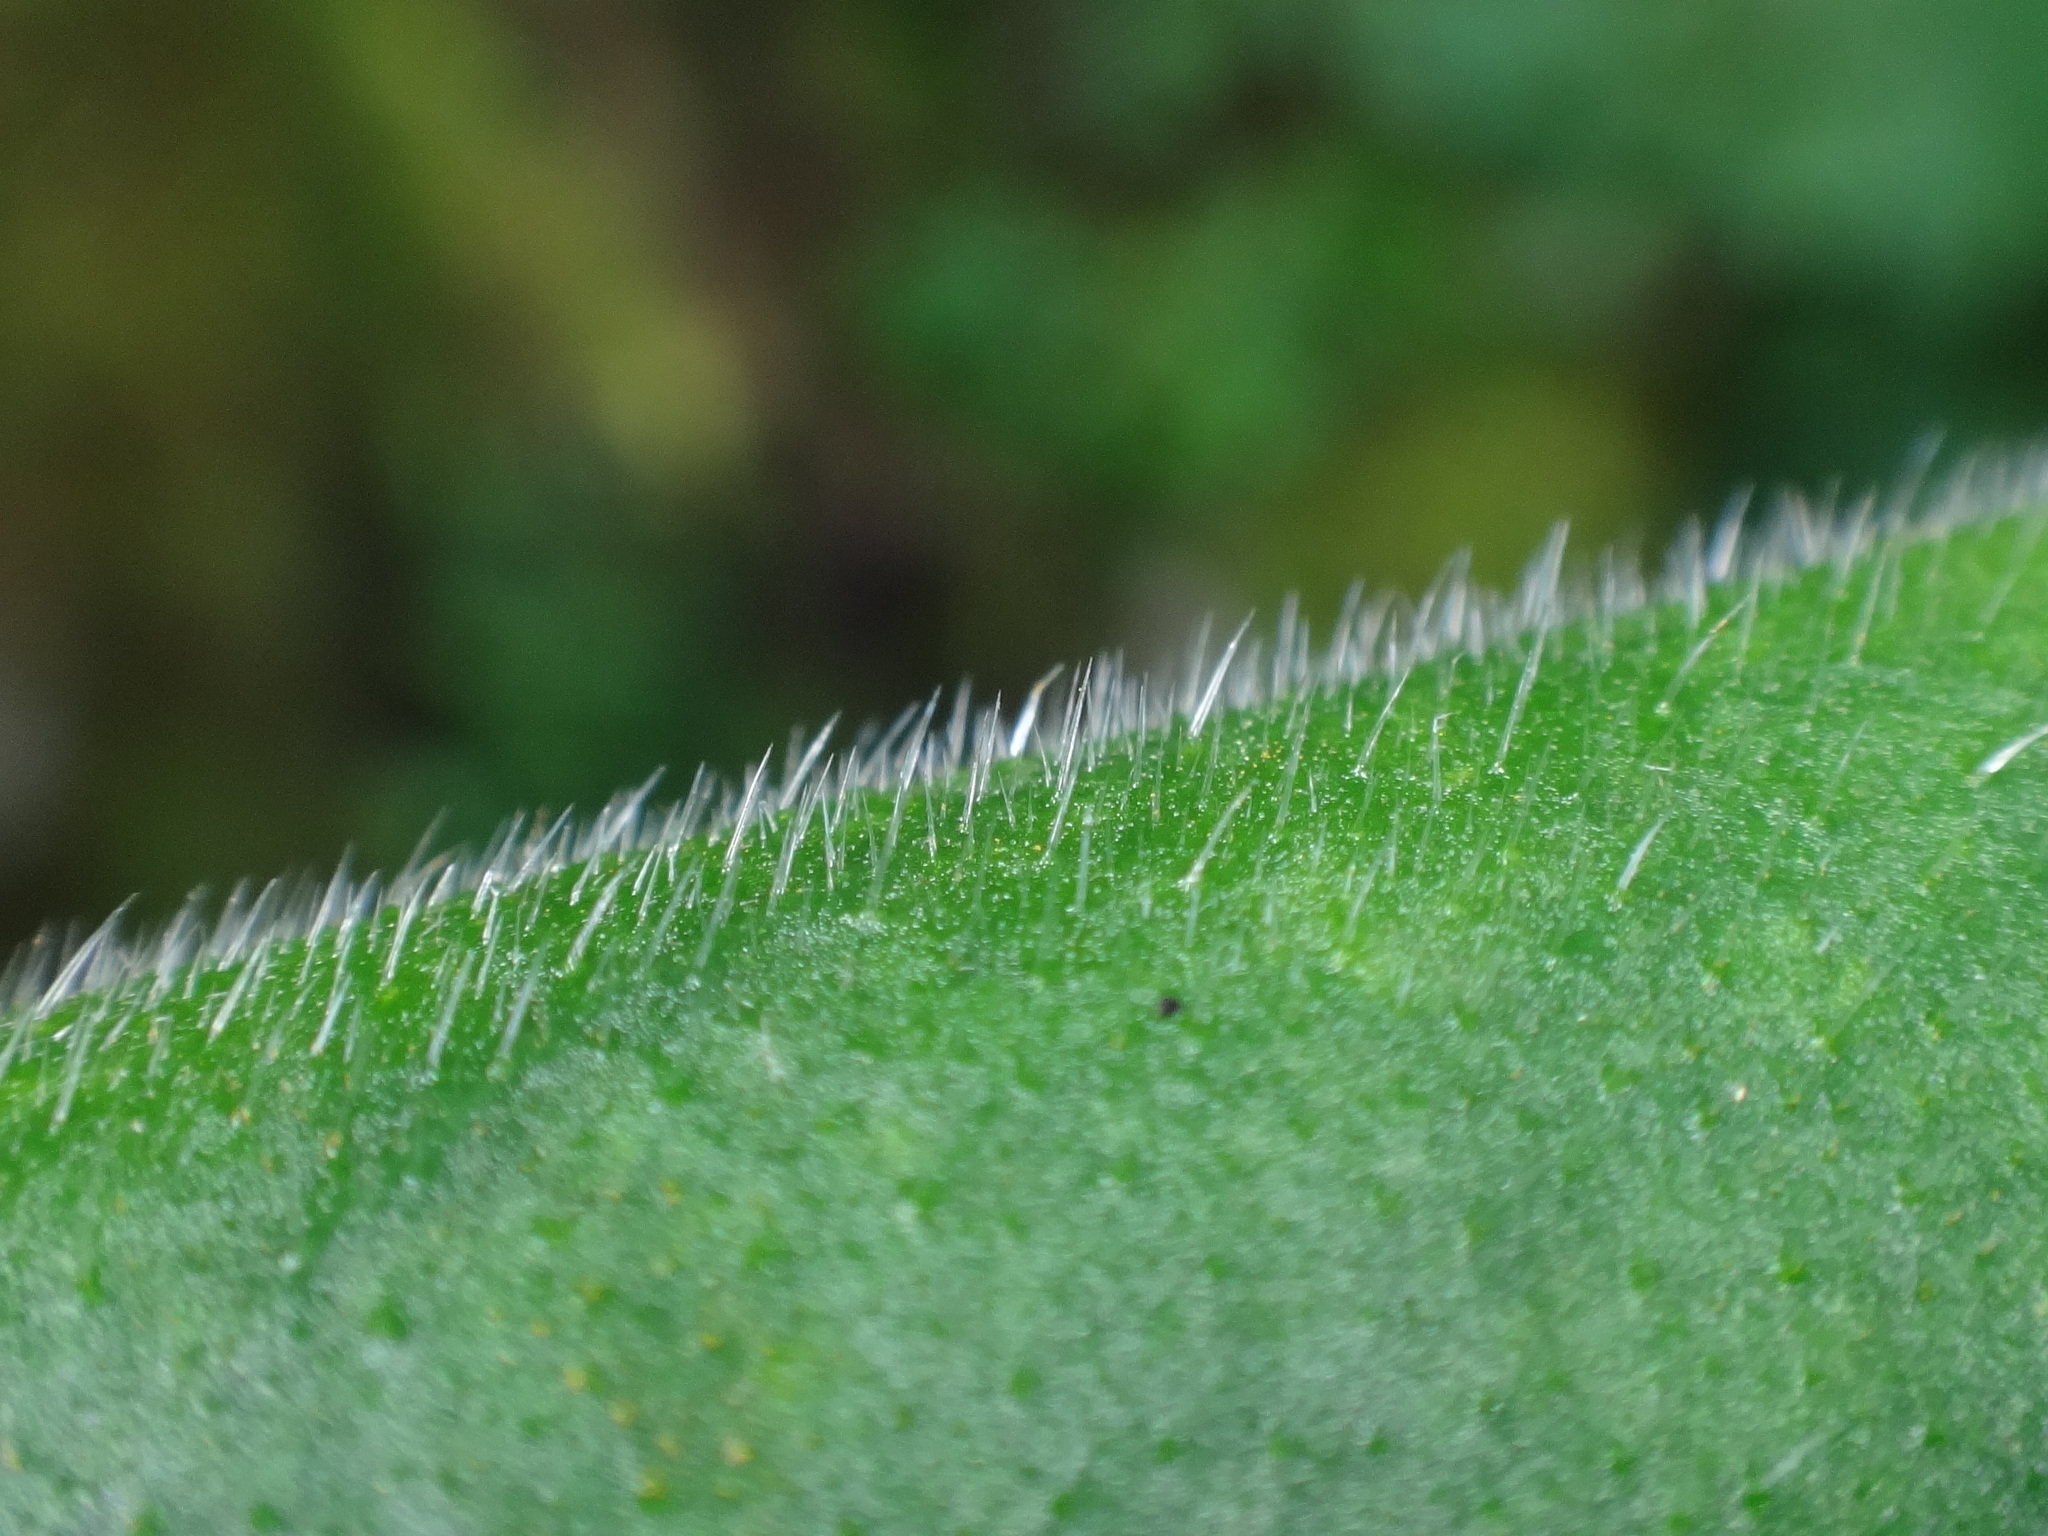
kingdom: Plantae
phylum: Tracheophyta
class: Magnoliopsida
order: Boraginales
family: Boraginaceae
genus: Pulmonaria
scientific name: Pulmonaria kerneri
